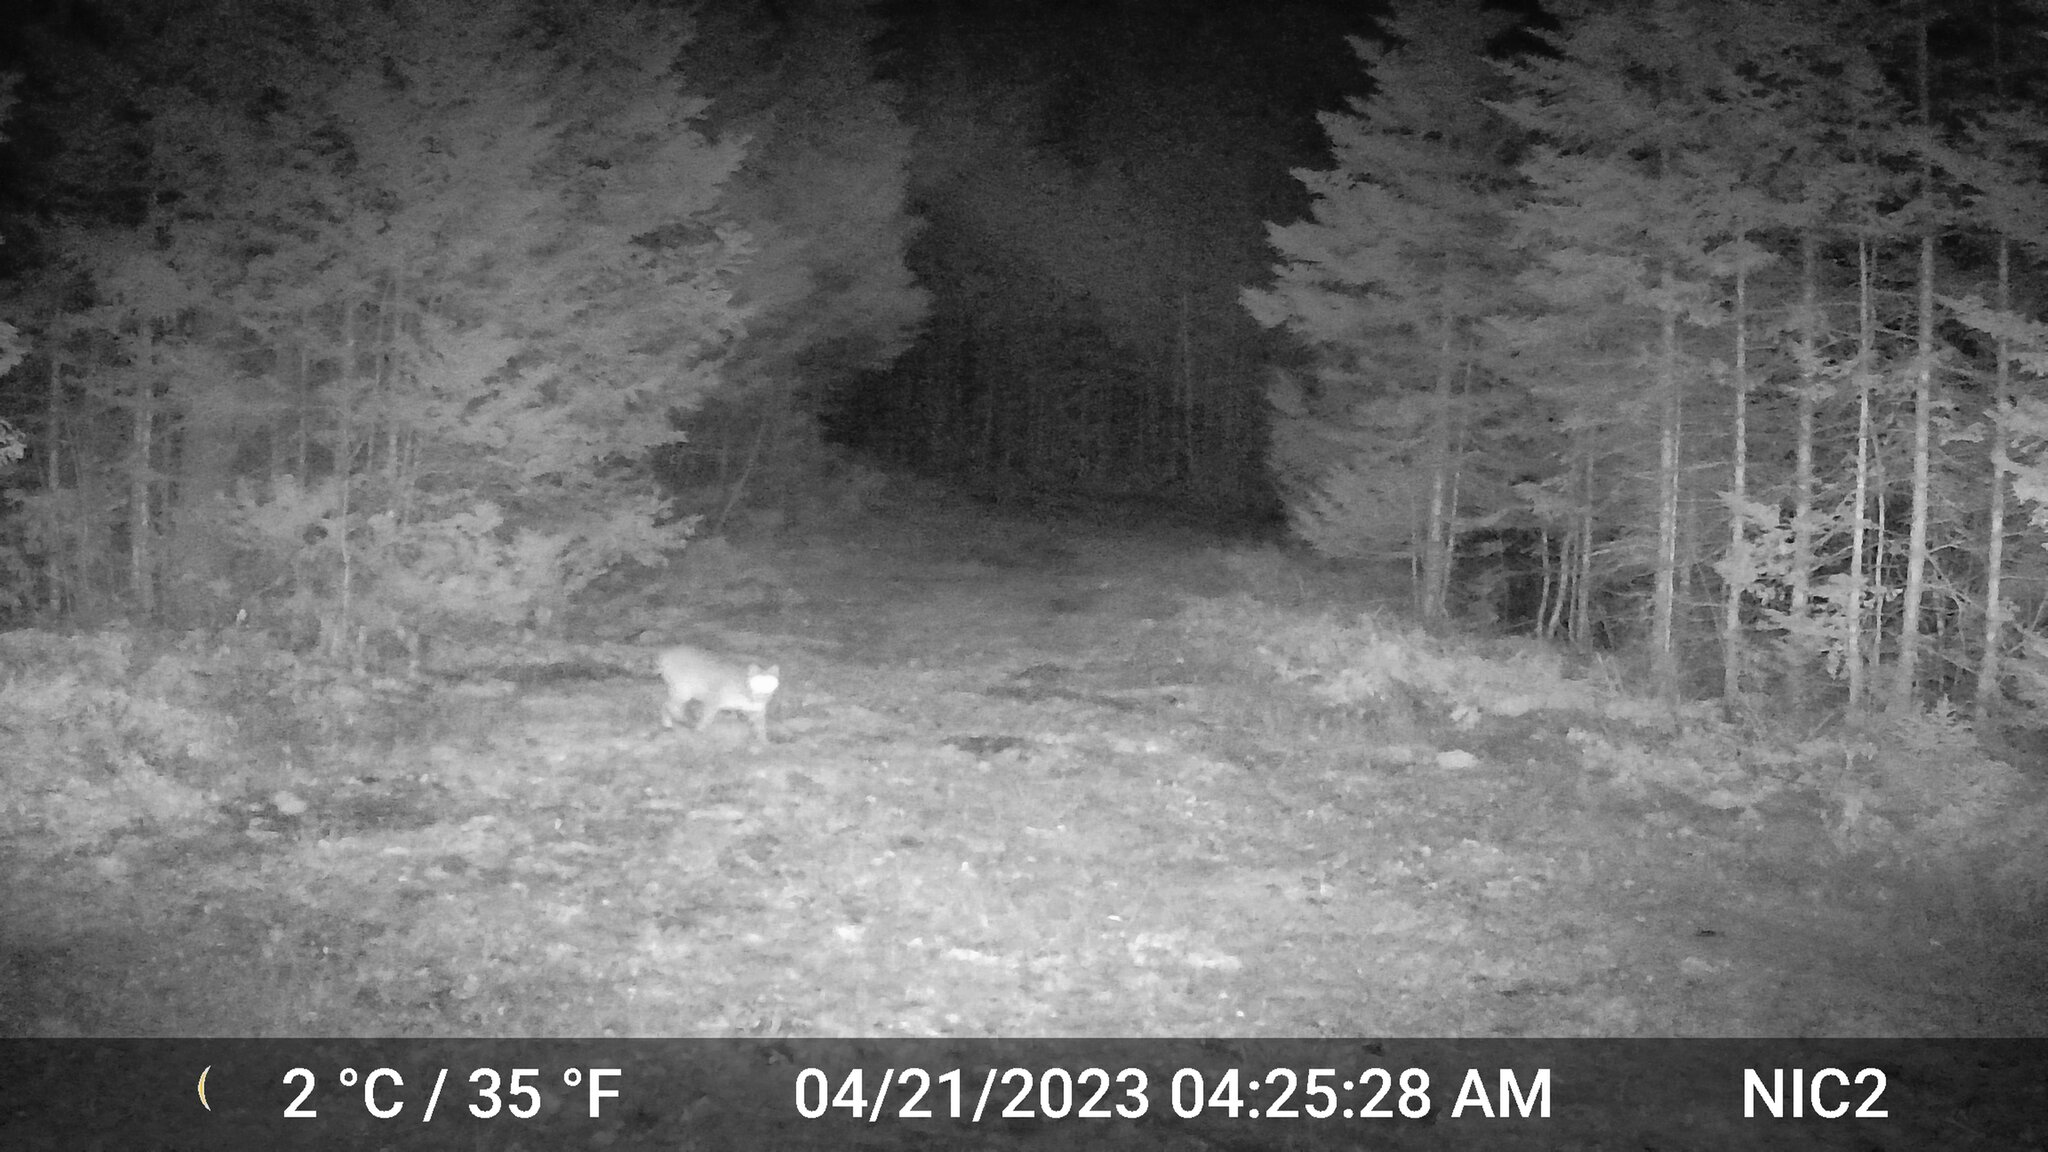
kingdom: Animalia
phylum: Chordata
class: Mammalia
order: Carnivora
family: Felidae
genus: Lynx
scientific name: Lynx rufus
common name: Bobcat
